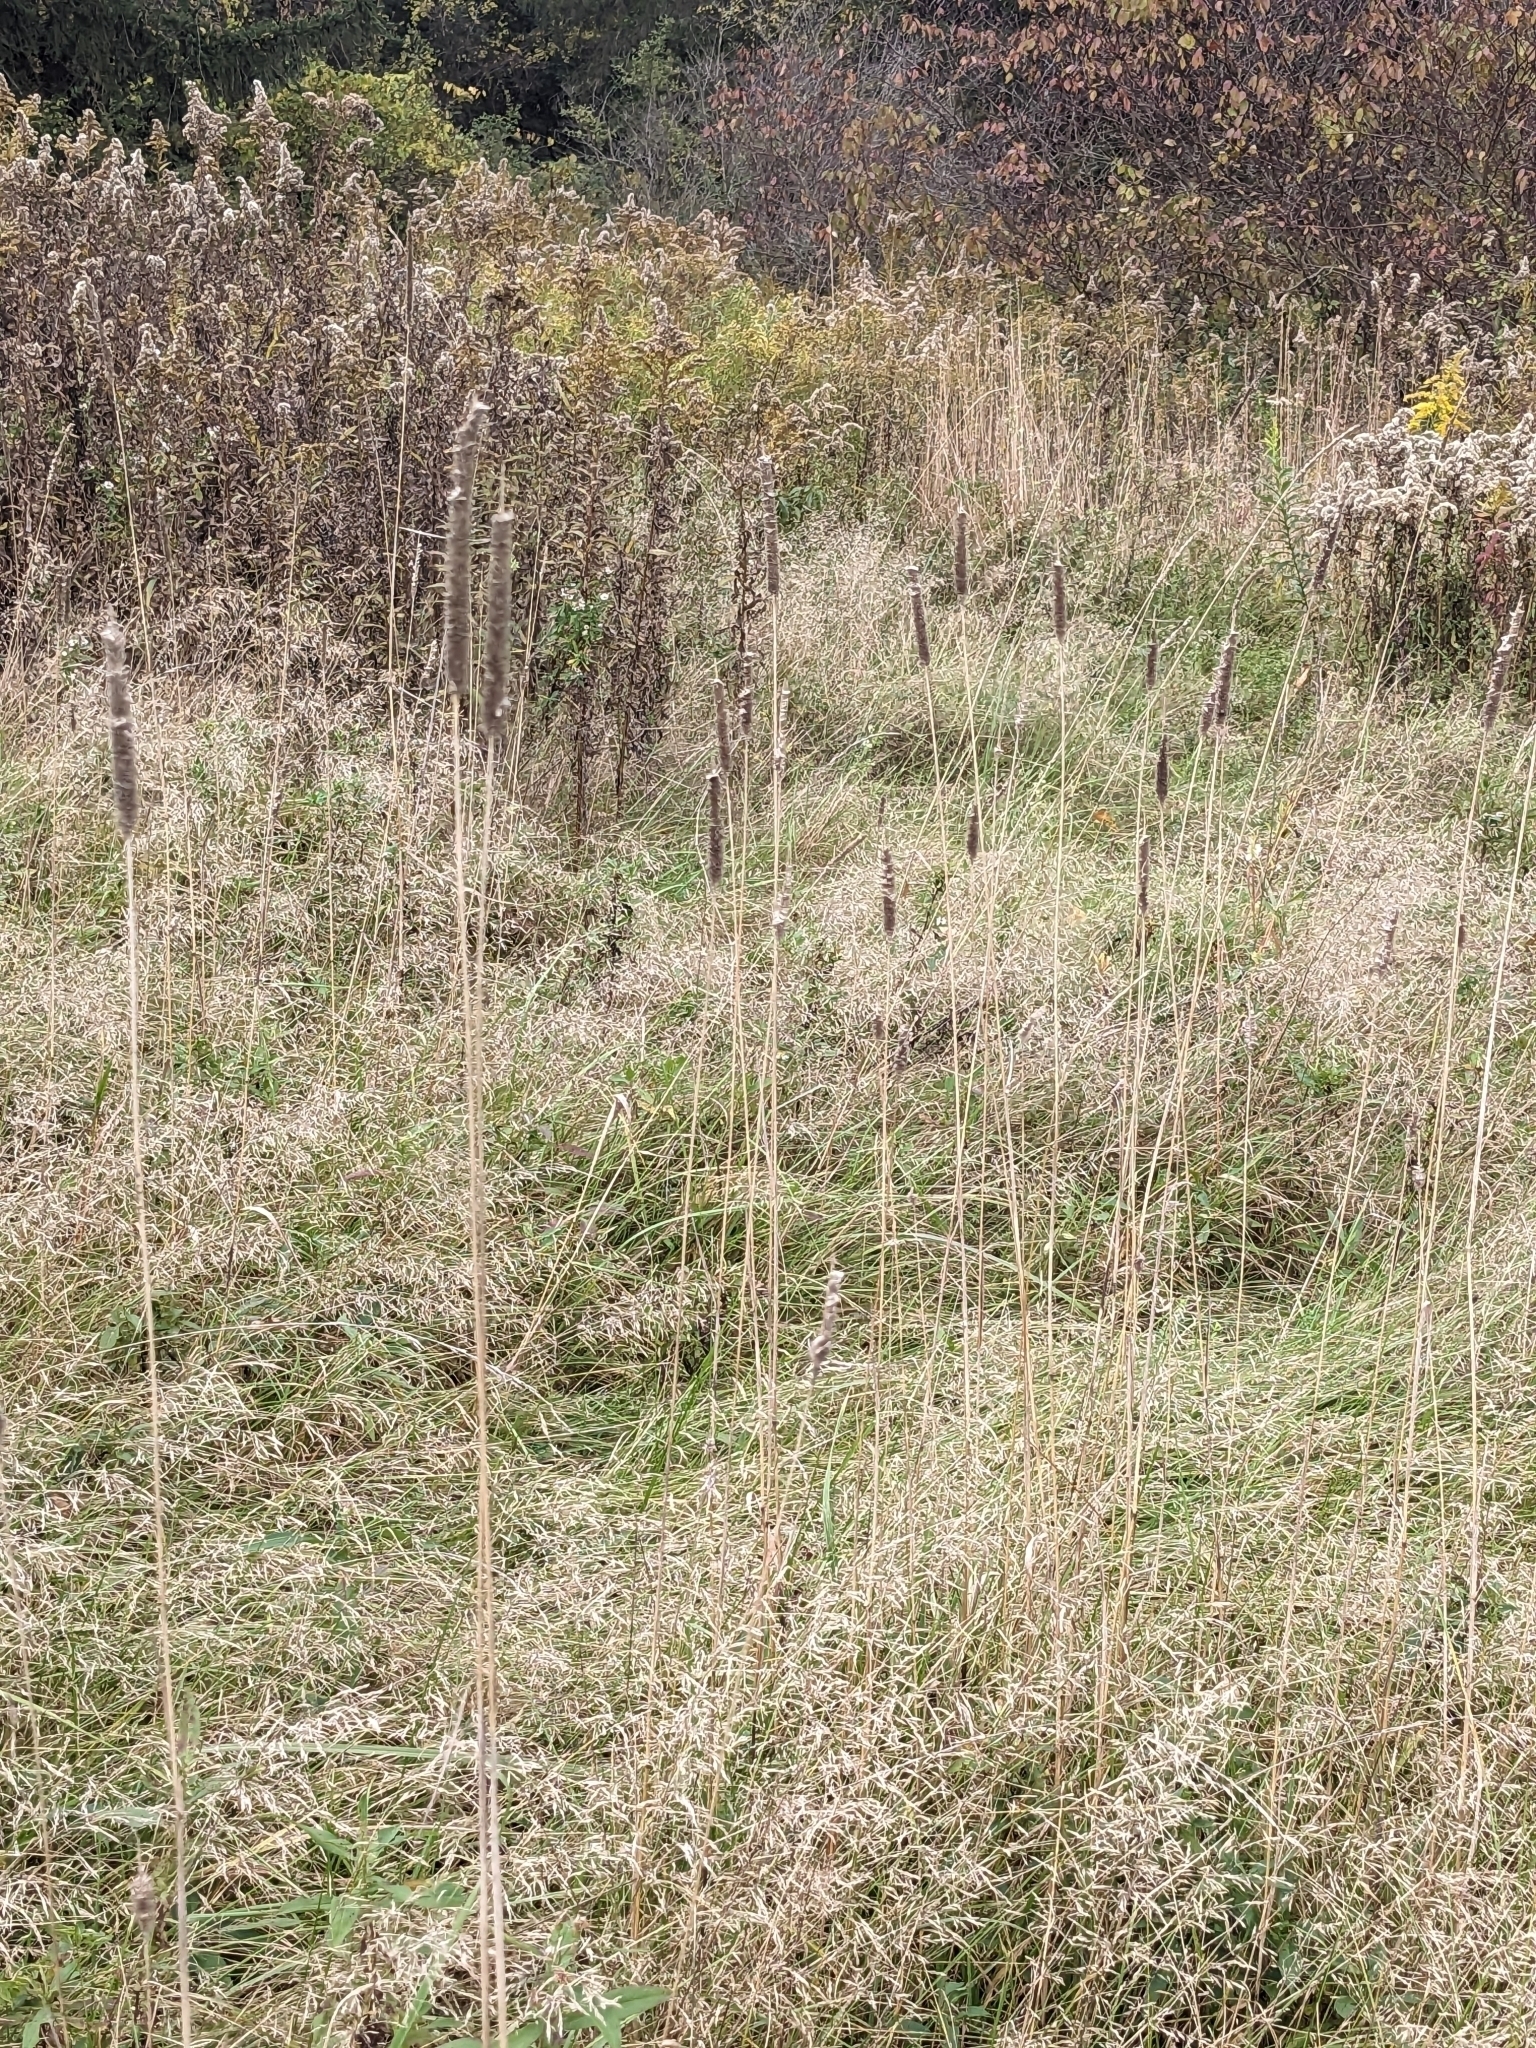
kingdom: Plantae
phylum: Tracheophyta
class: Liliopsida
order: Poales
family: Poaceae
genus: Phleum
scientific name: Phleum pratense
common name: Timothy grass
